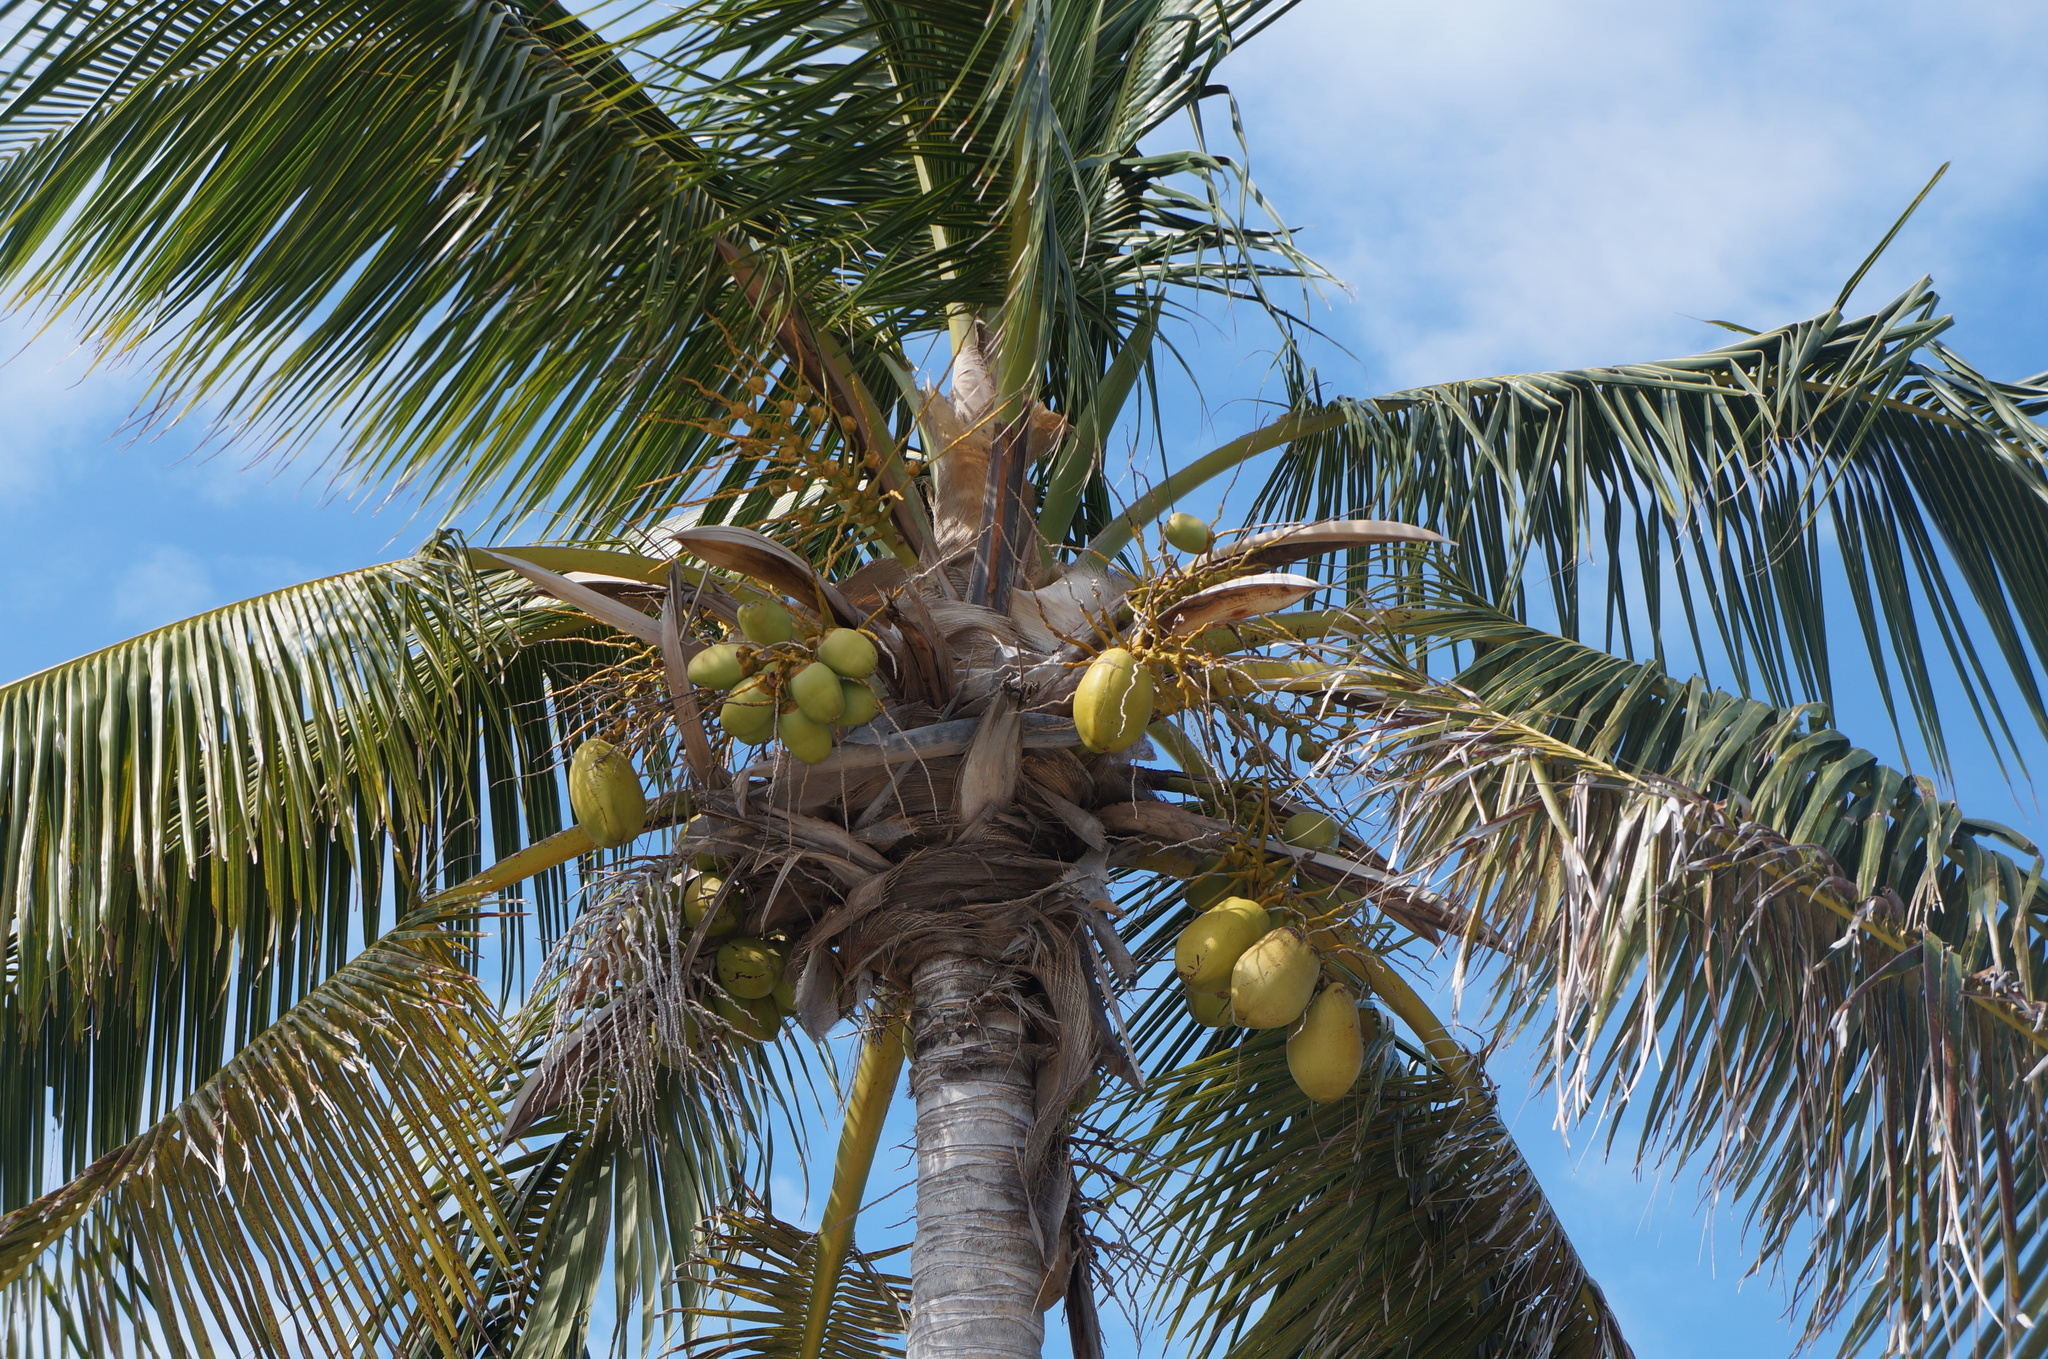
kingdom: Plantae
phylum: Tracheophyta
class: Liliopsida
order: Arecales
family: Arecaceae
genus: Cocos
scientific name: Cocos nucifera
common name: Coconut palm
